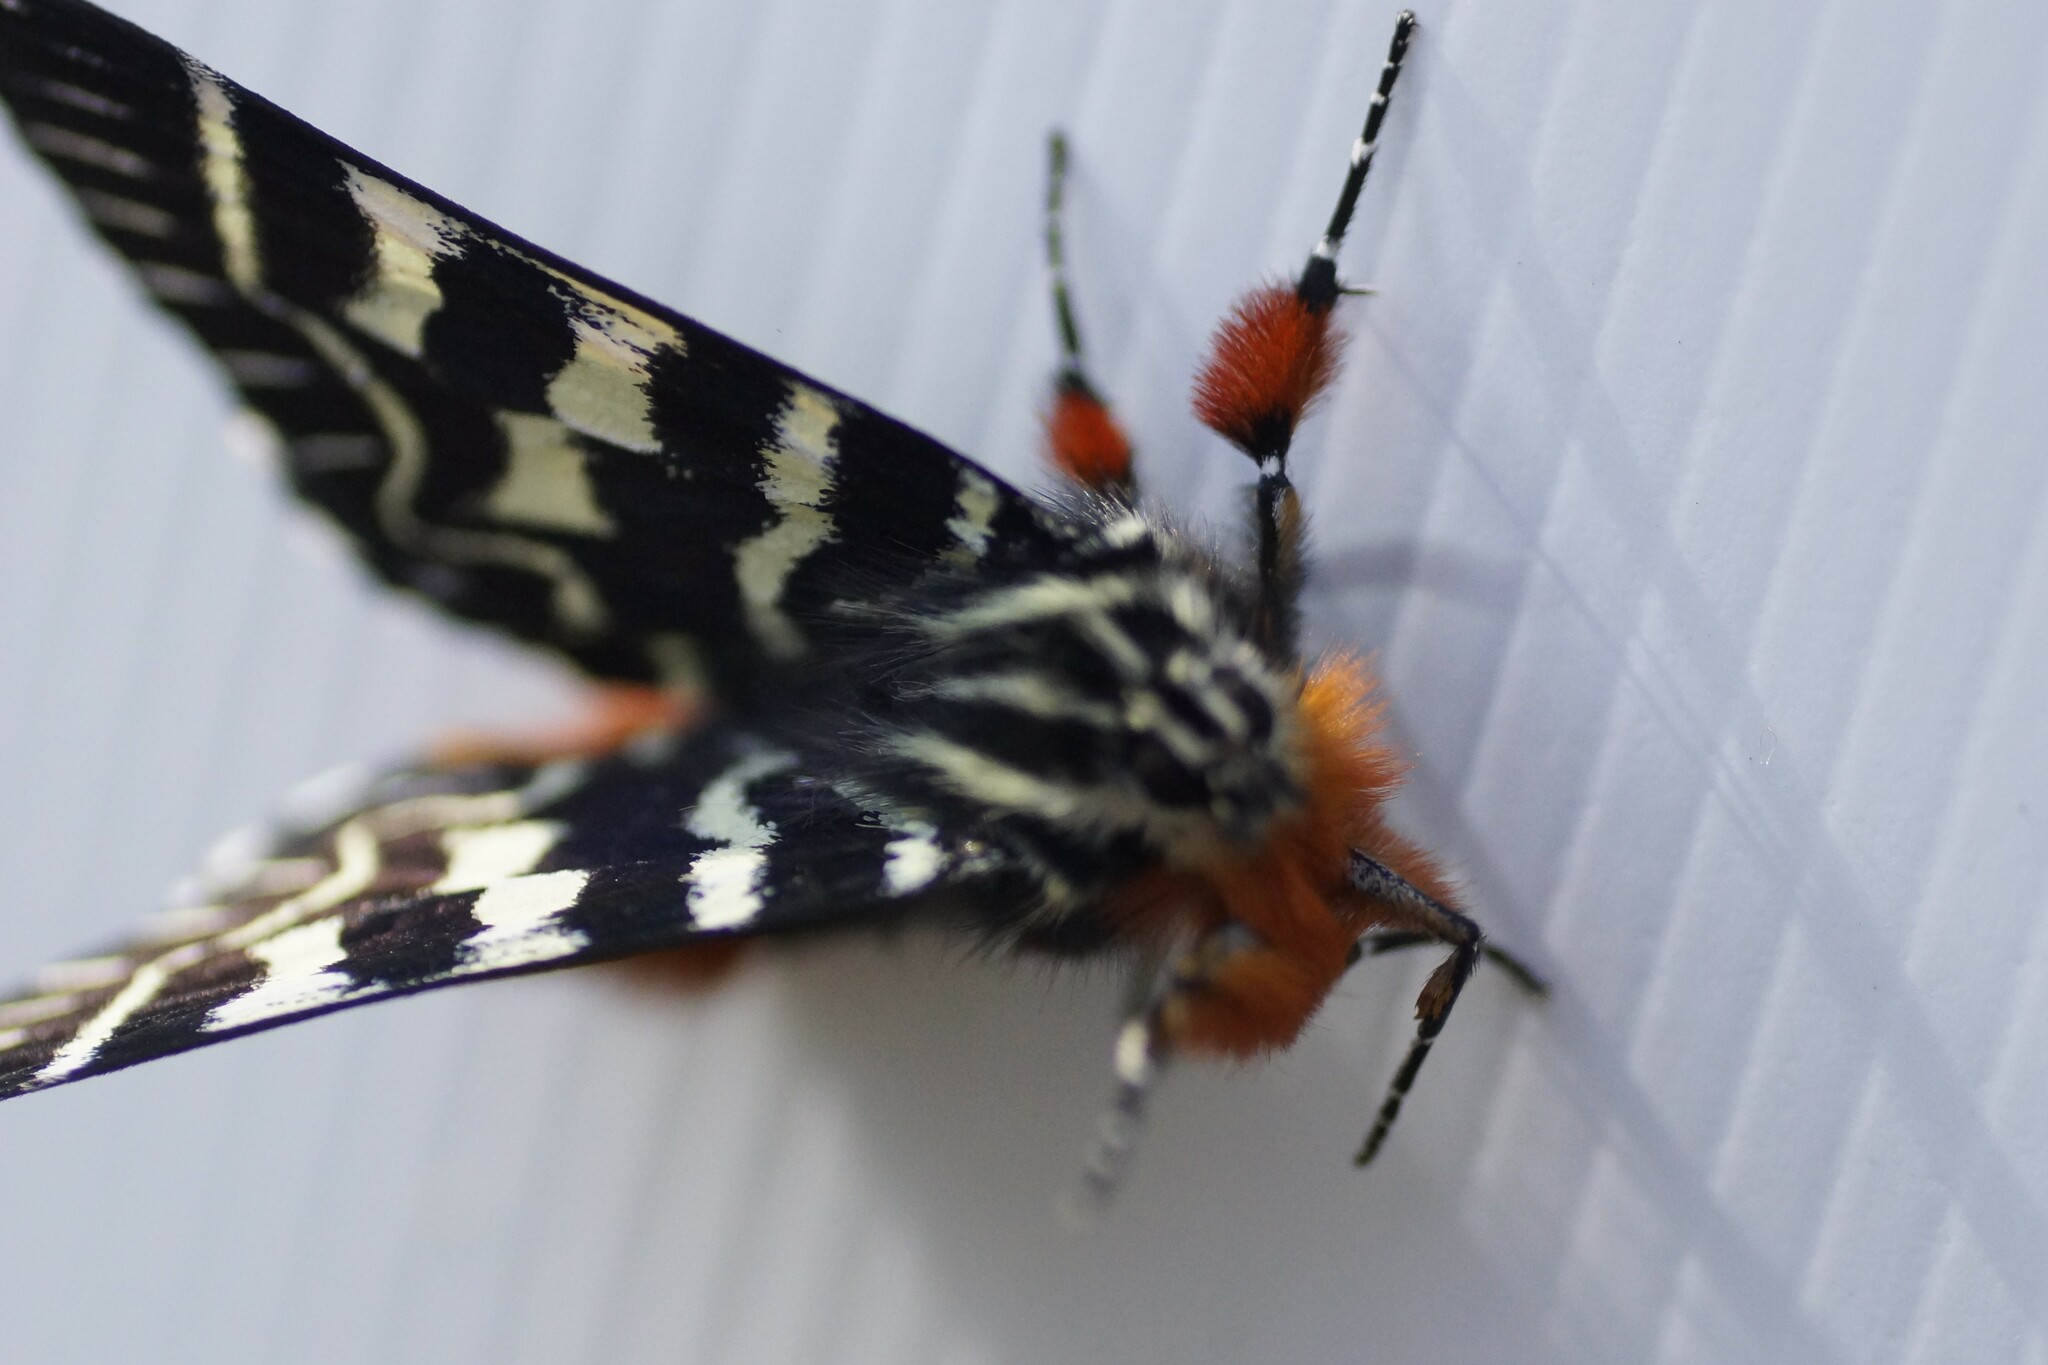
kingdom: Animalia
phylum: Arthropoda
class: Insecta
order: Lepidoptera
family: Noctuidae
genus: Comocrus
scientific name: Comocrus behri
